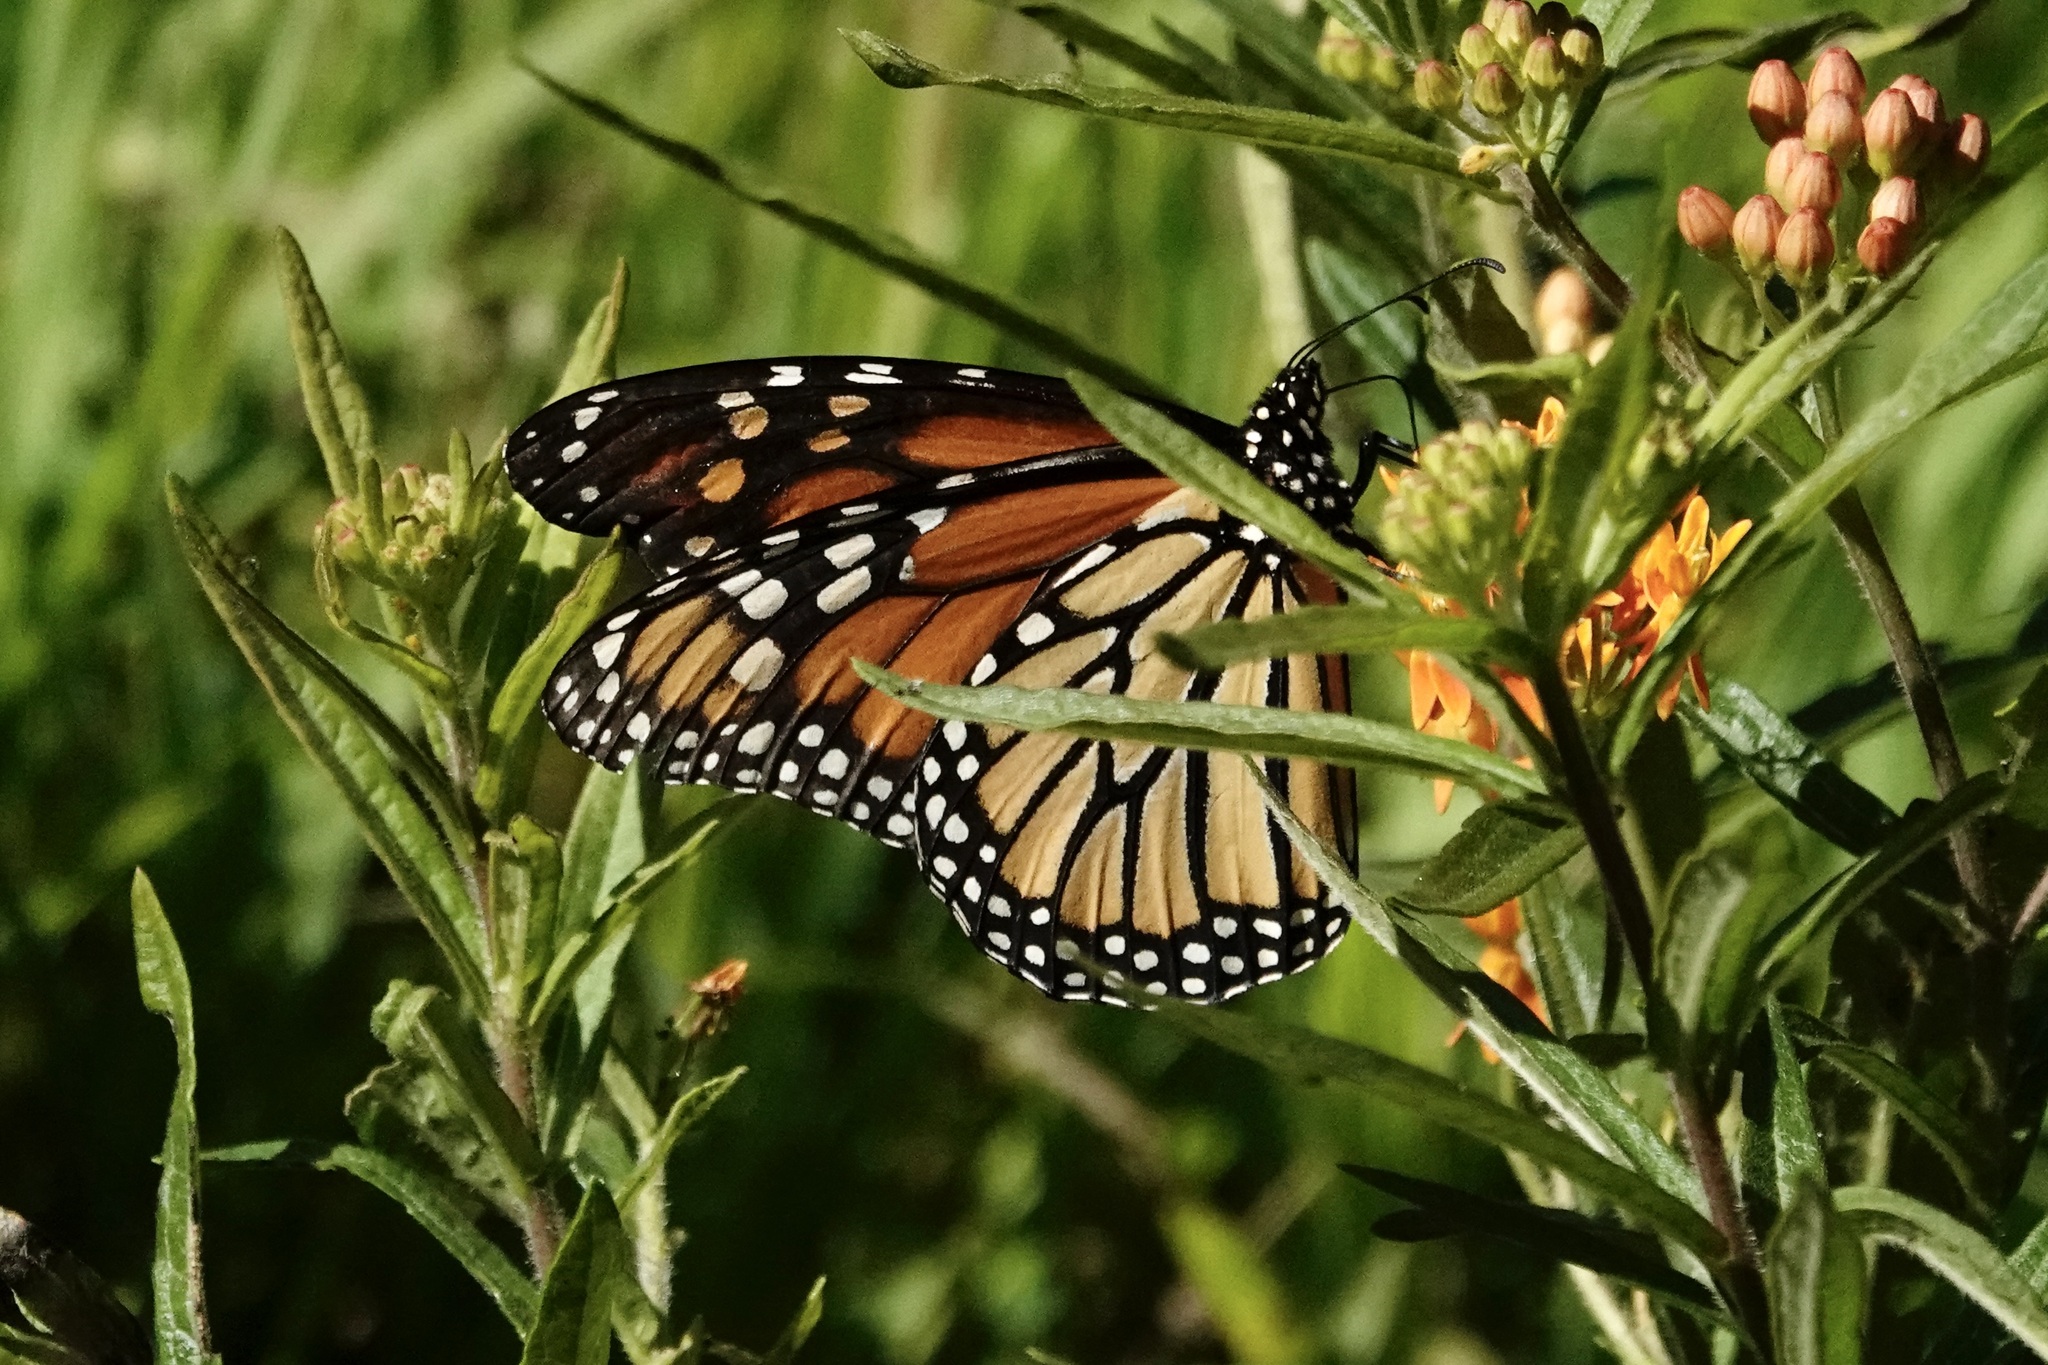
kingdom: Animalia
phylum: Arthropoda
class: Insecta
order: Lepidoptera
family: Nymphalidae
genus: Danaus
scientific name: Danaus plexippus
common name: Monarch
